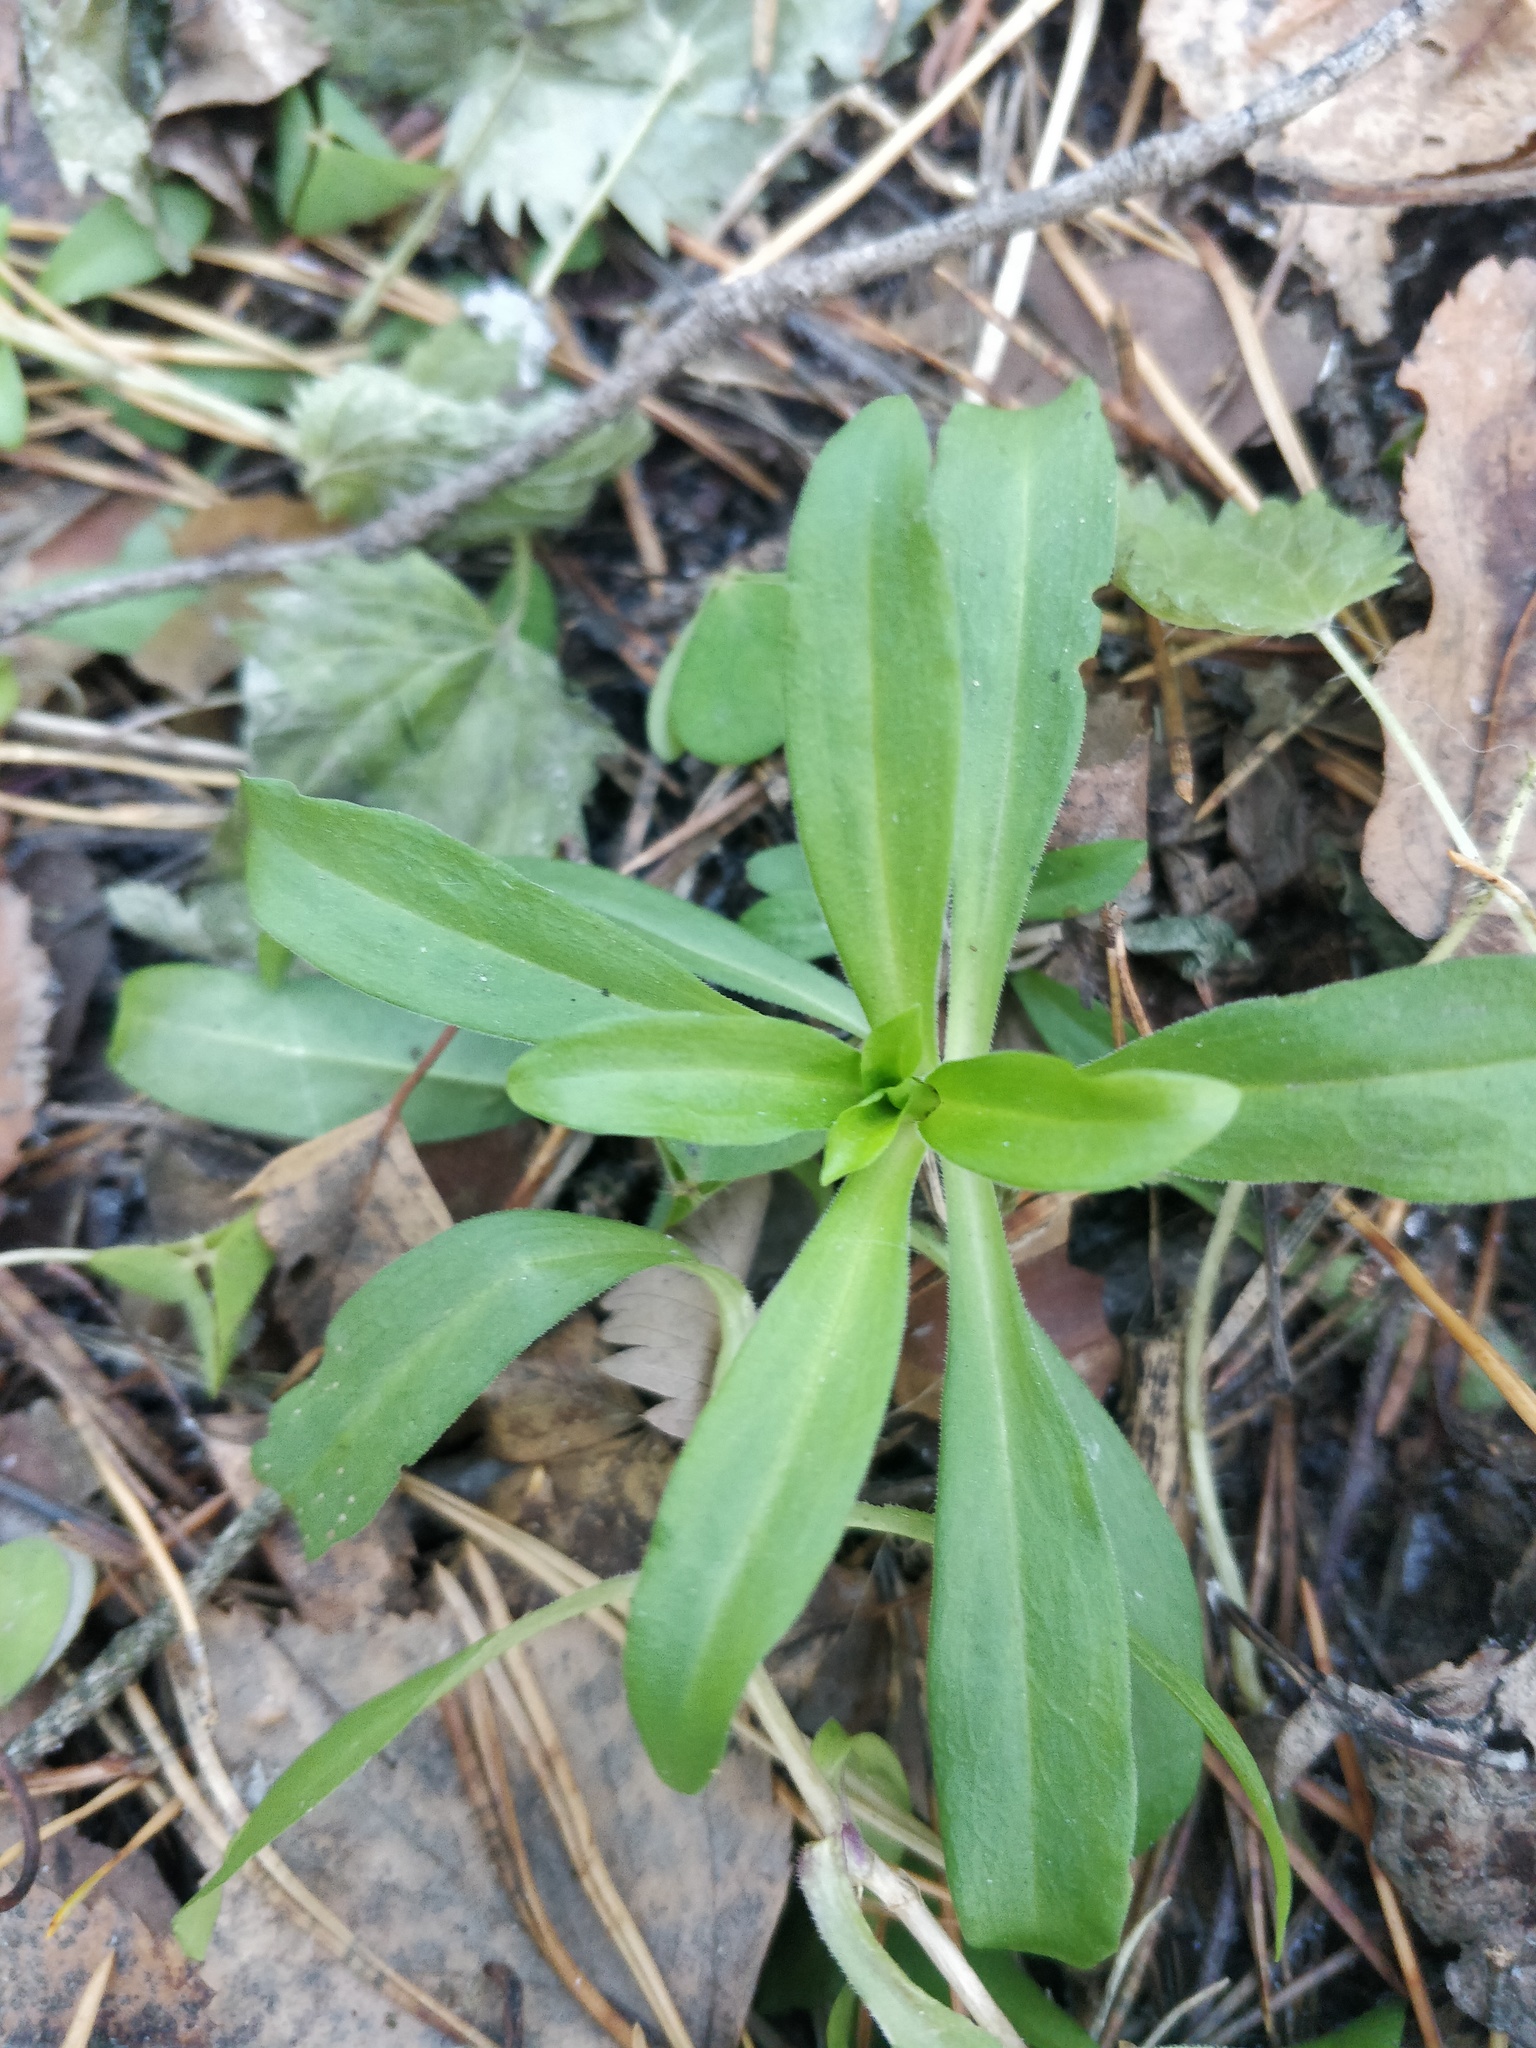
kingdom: Plantae
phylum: Tracheophyta
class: Magnoliopsida
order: Caryophyllales
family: Caryophyllaceae
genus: Dianthus
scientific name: Dianthus barbatus
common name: Sweet-william
